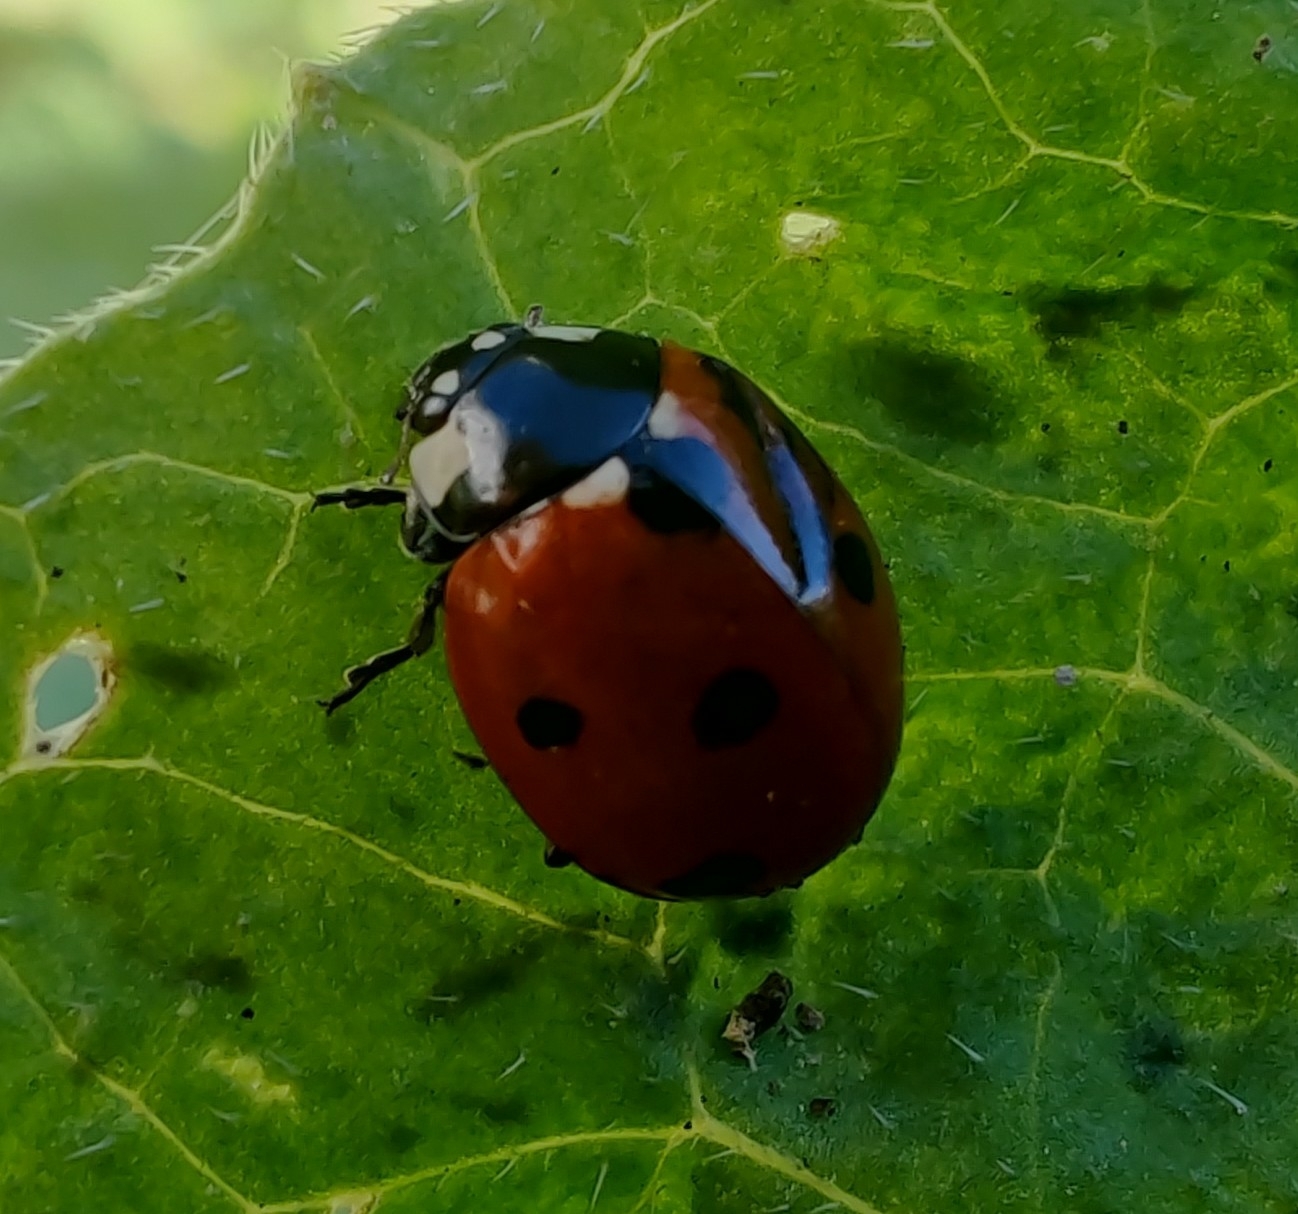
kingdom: Animalia
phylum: Arthropoda
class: Insecta
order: Coleoptera
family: Coccinellidae
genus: Coccinella
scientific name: Coccinella septempunctata
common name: Sevenspotted lady beetle
